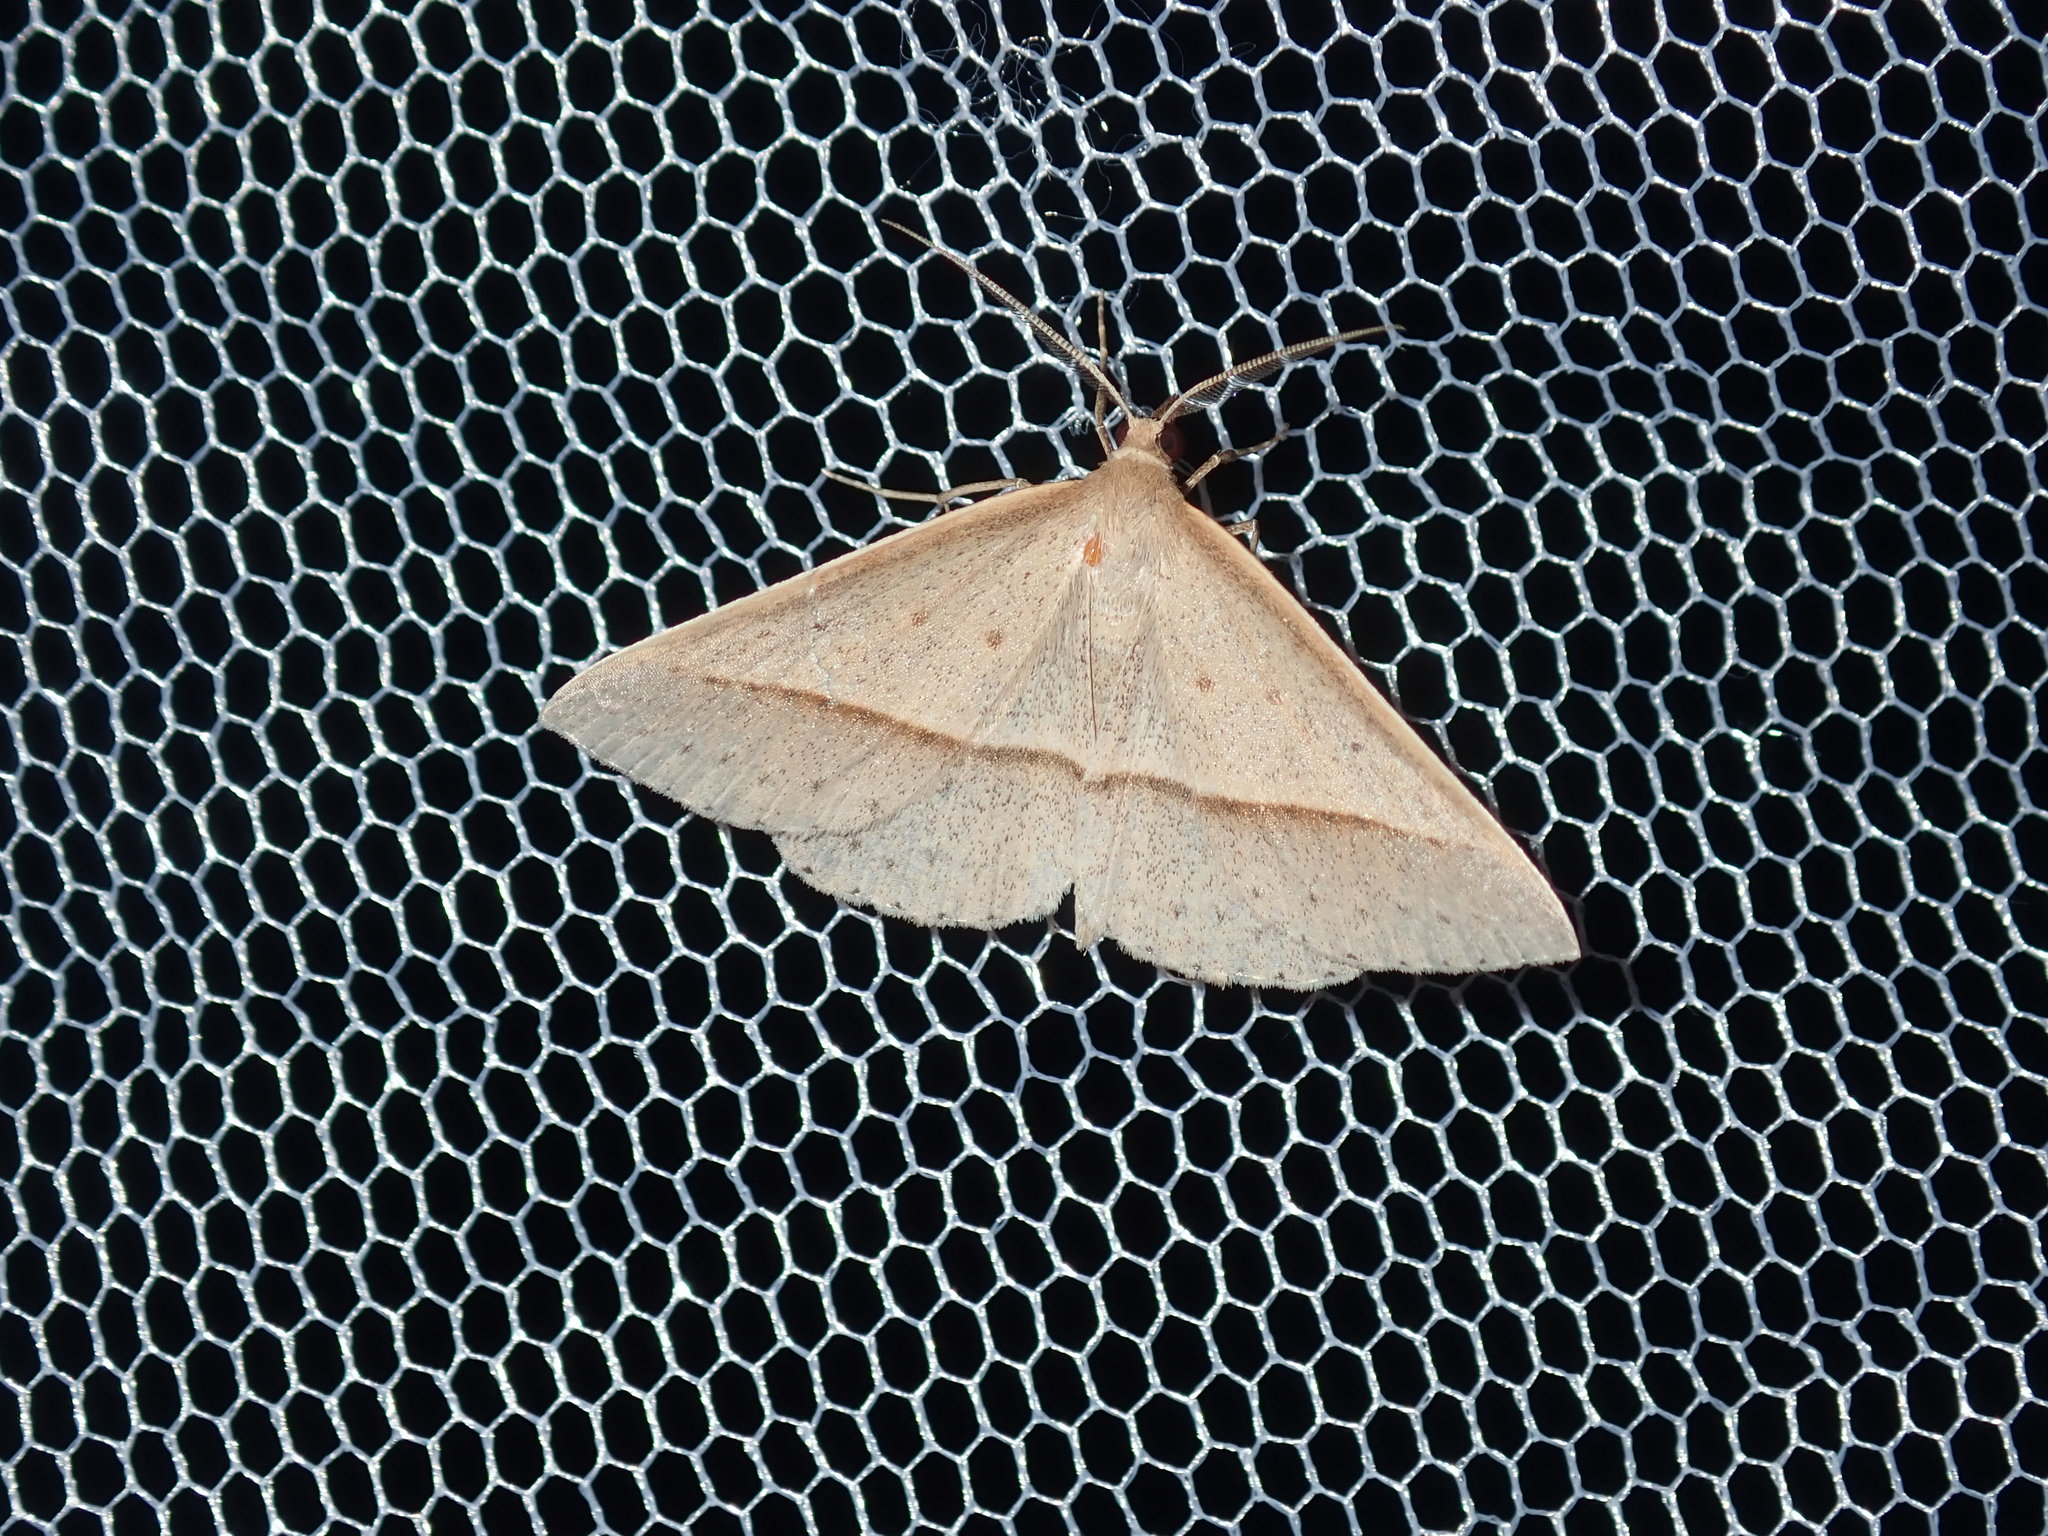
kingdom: Animalia
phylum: Arthropoda
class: Insecta
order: Lepidoptera
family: Geometridae
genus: Epidesmia
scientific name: Epidesmia tryxaria
